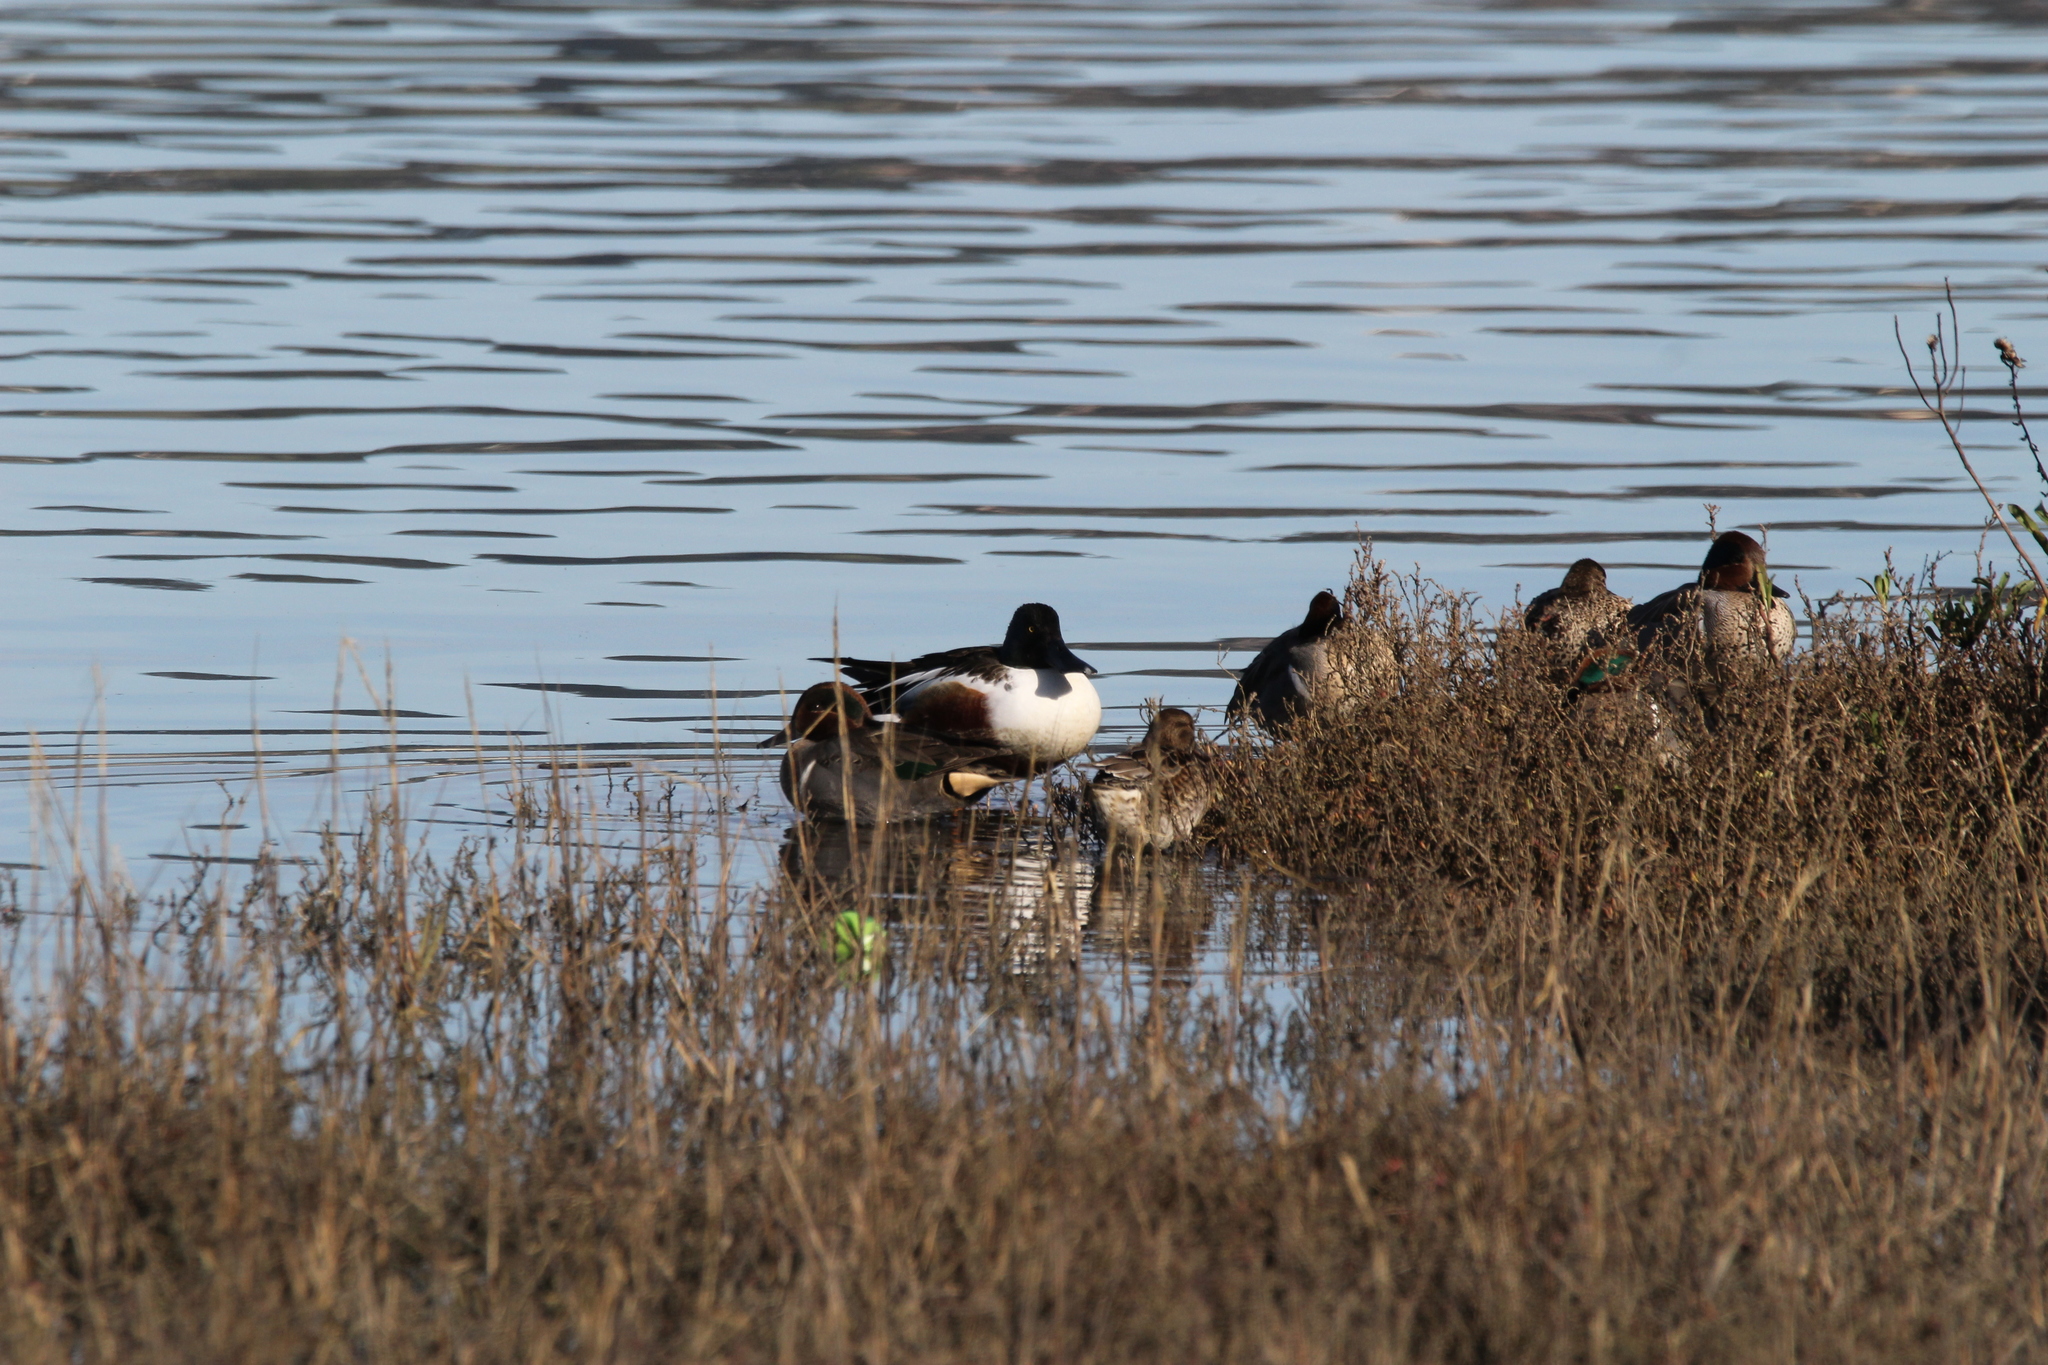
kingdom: Animalia
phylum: Chordata
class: Aves
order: Anseriformes
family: Anatidae
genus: Spatula
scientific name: Spatula clypeata
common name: Northern shoveler
